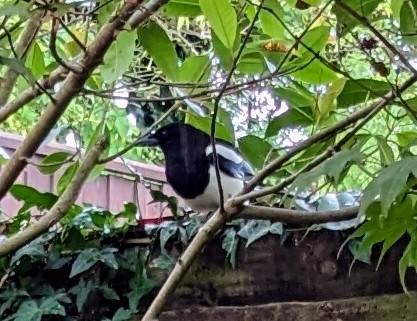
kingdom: Animalia
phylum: Chordata
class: Aves
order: Passeriformes
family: Corvidae
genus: Pica
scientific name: Pica pica
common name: Eurasian magpie
